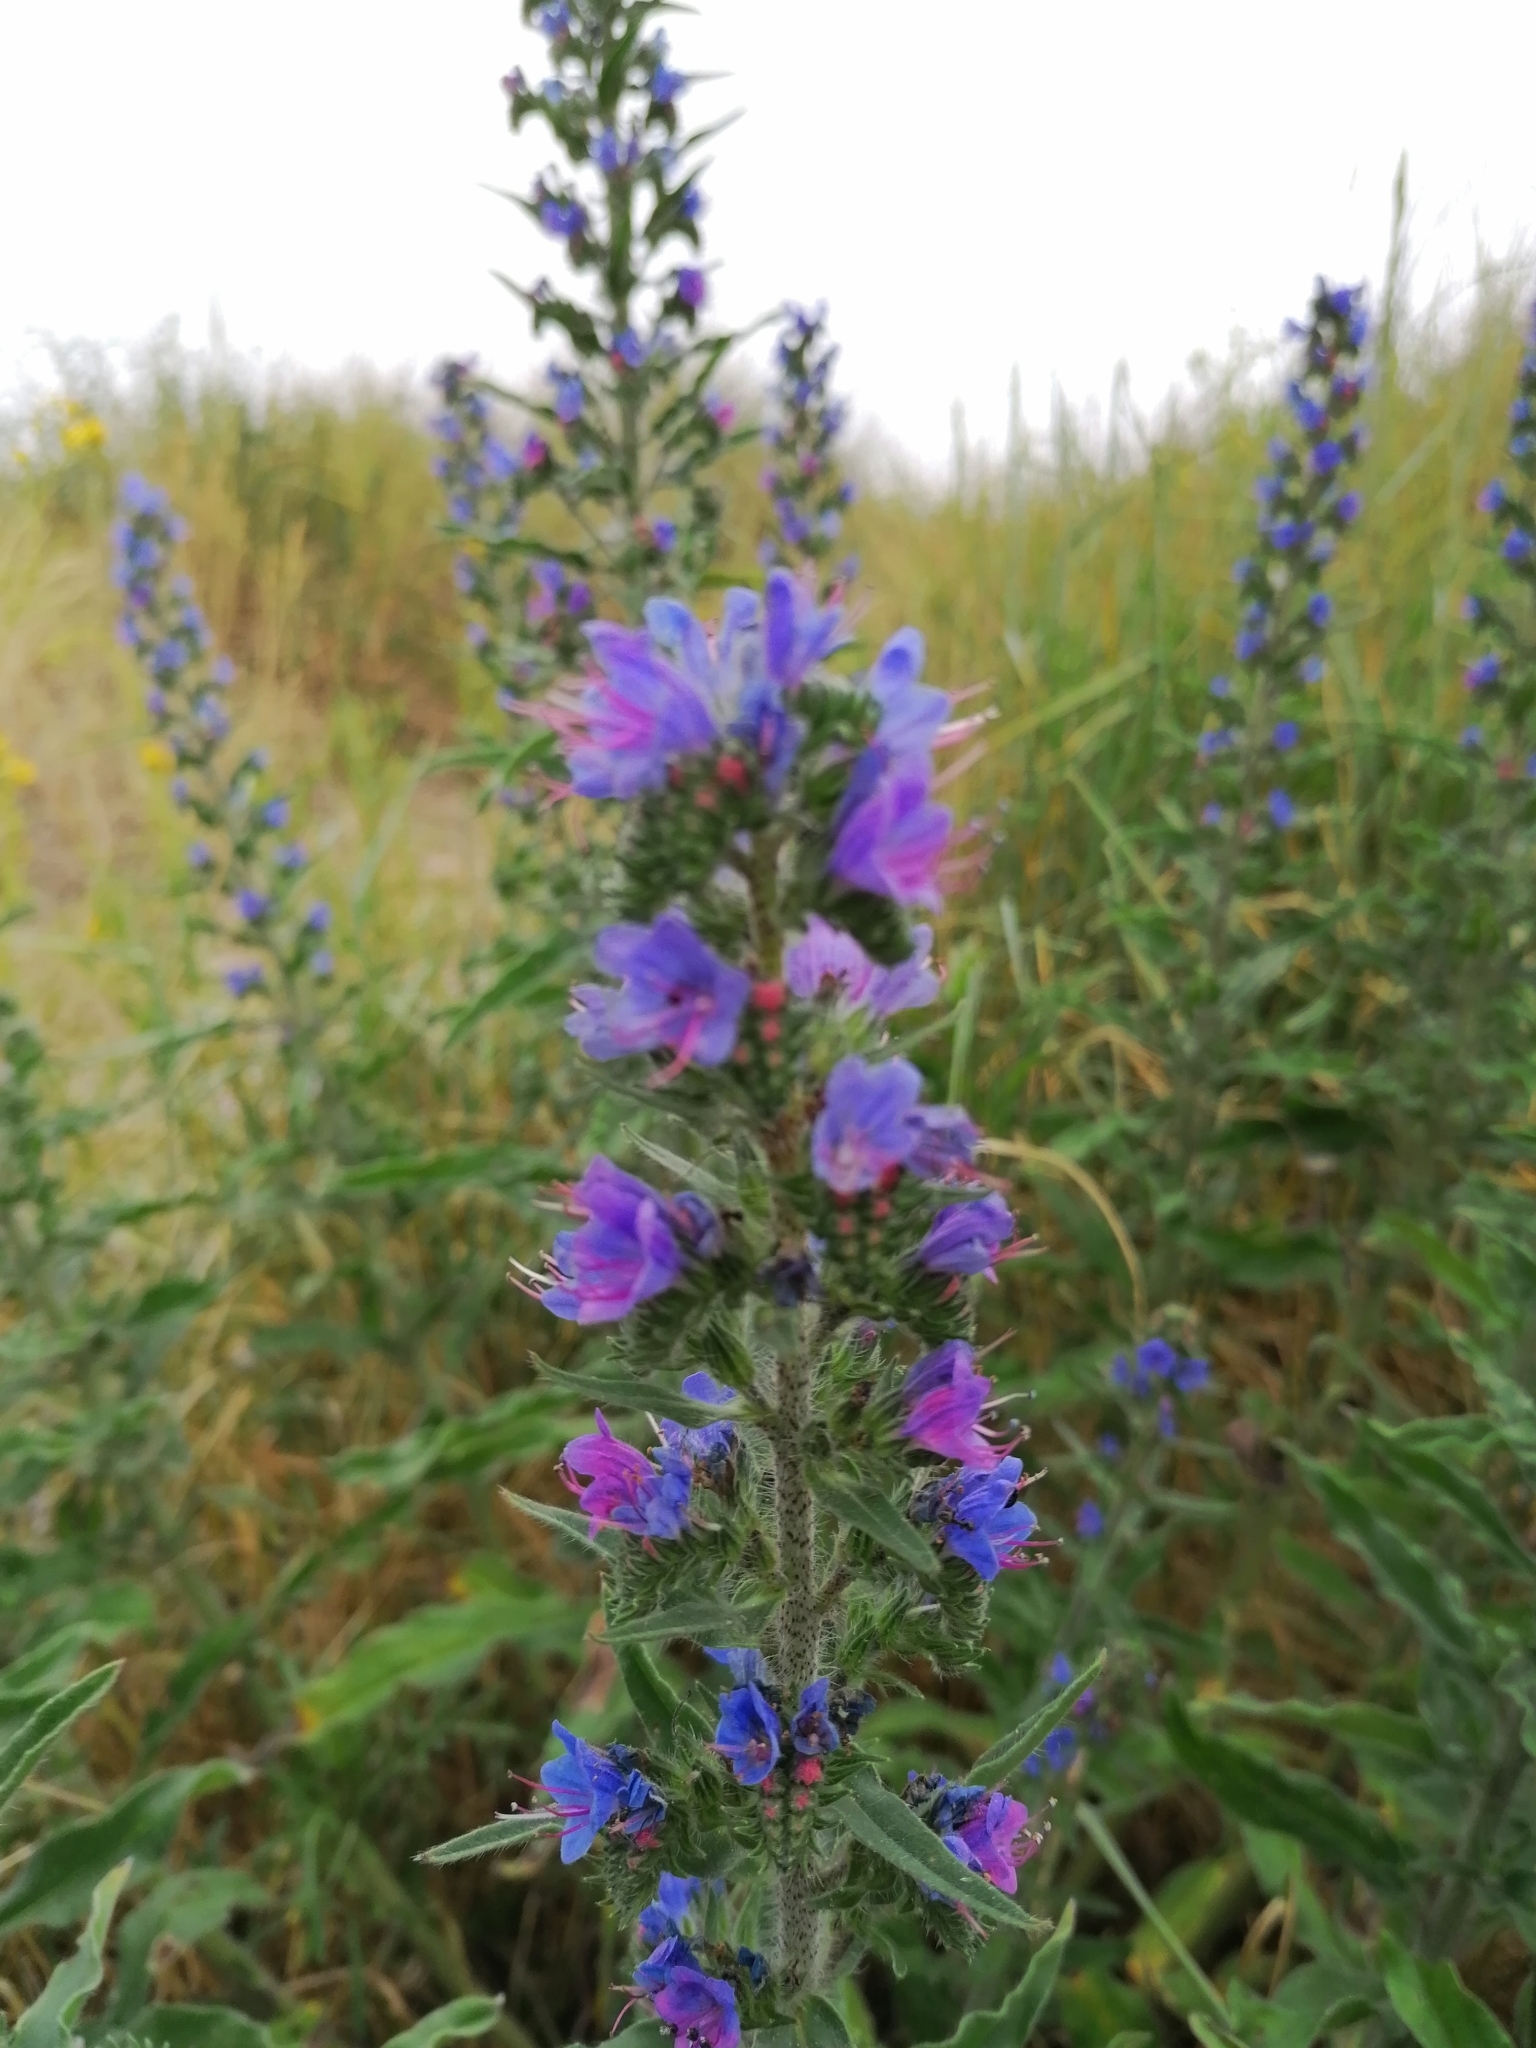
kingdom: Plantae
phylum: Tracheophyta
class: Magnoliopsida
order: Boraginales
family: Boraginaceae
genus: Echium
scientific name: Echium vulgare
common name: Common viper's bugloss
